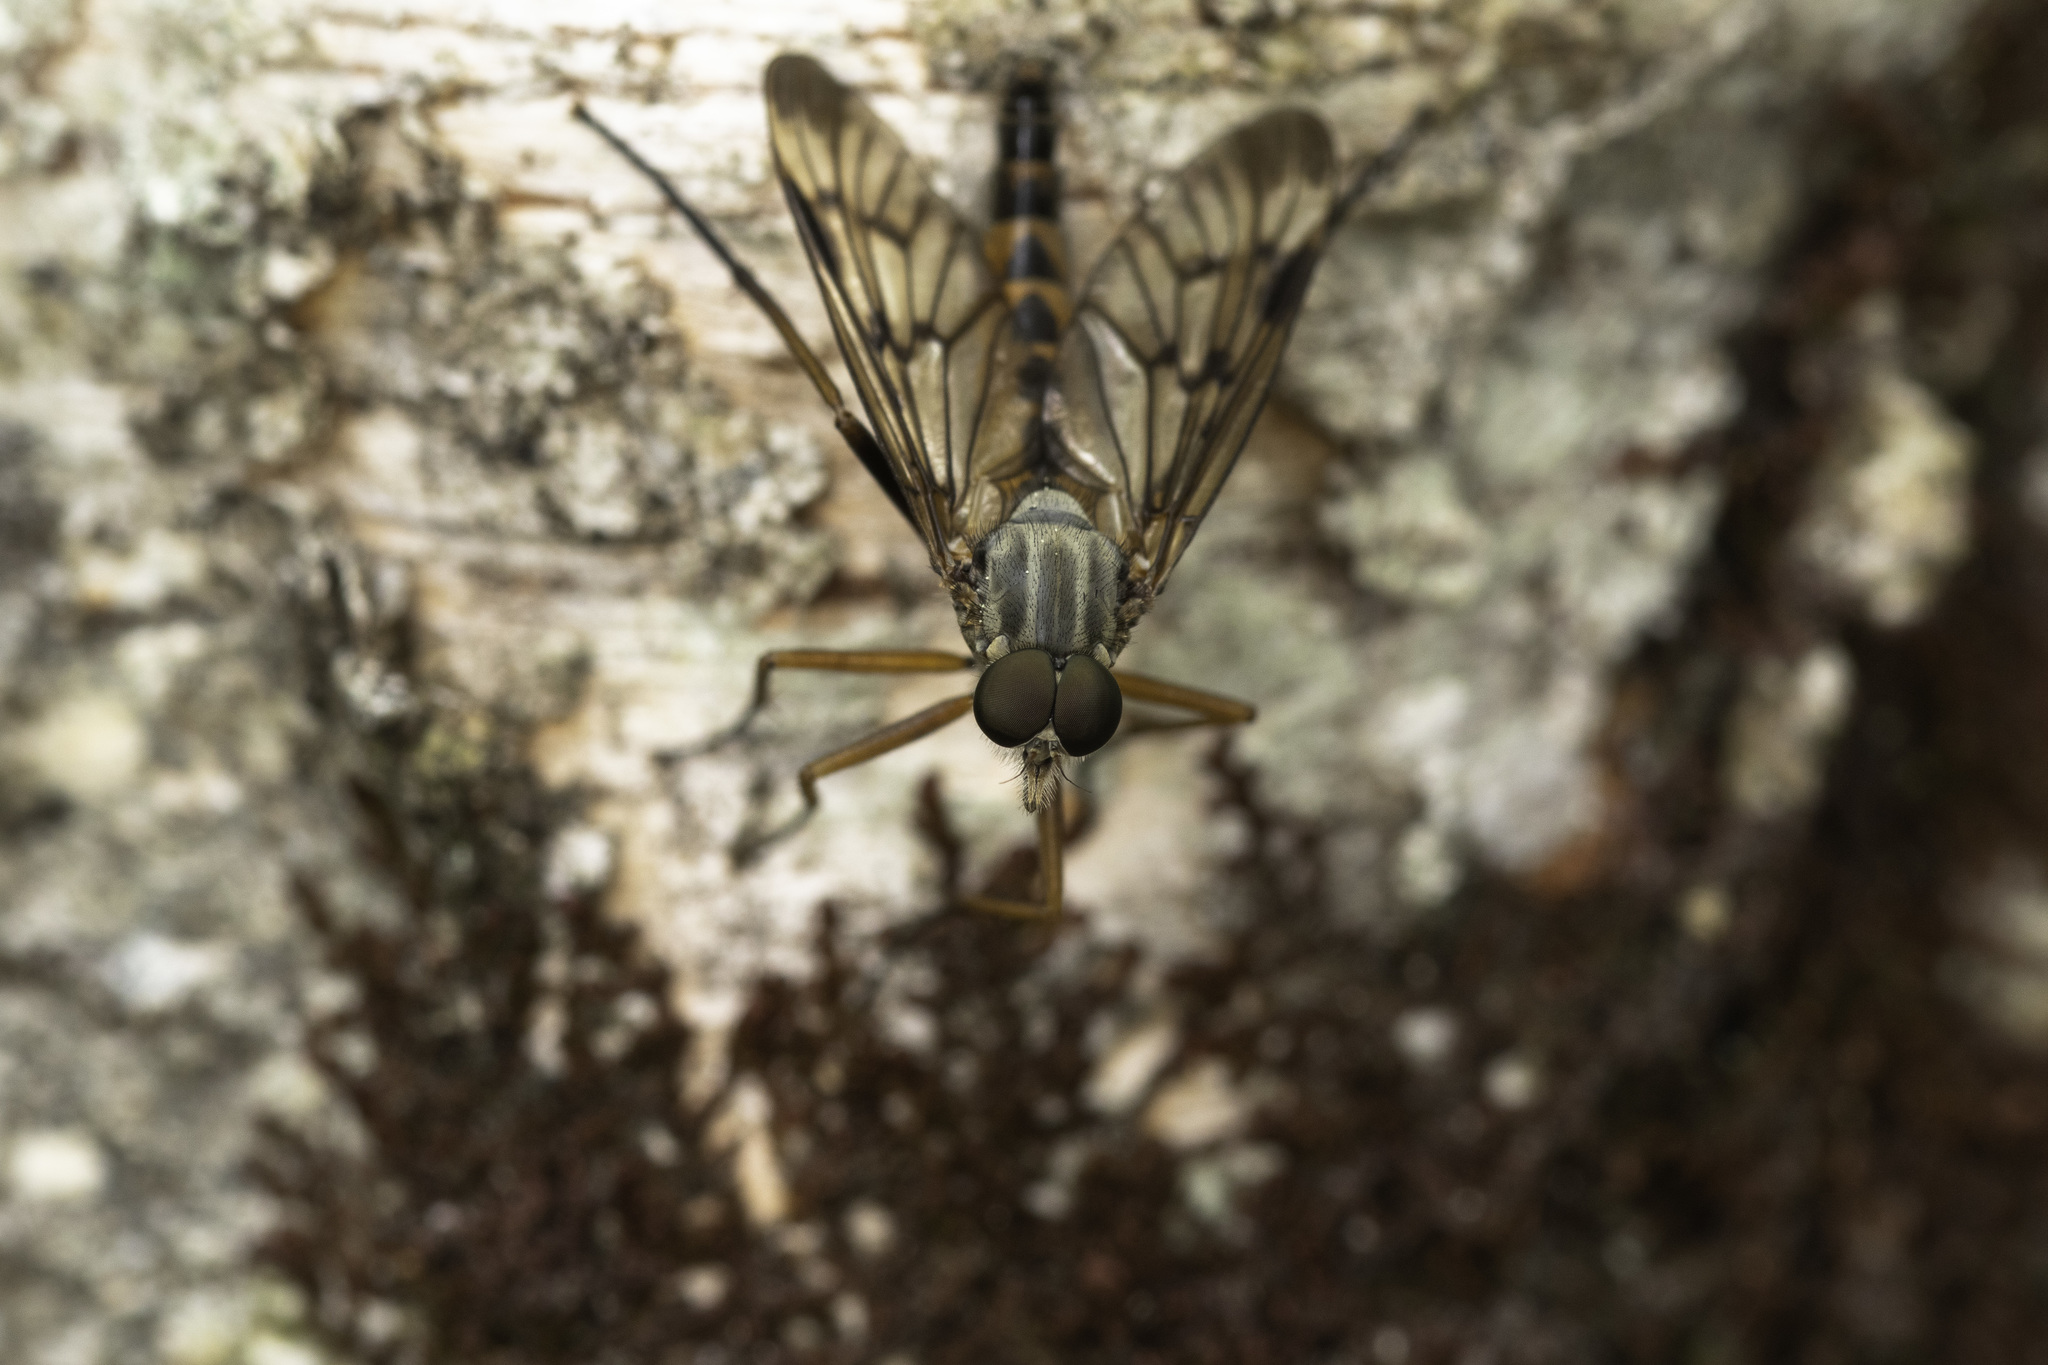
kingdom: Animalia
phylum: Arthropoda
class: Insecta
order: Diptera
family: Rhagionidae
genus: Rhagio
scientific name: Rhagio scolopacea
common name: Downlooker snipefly
